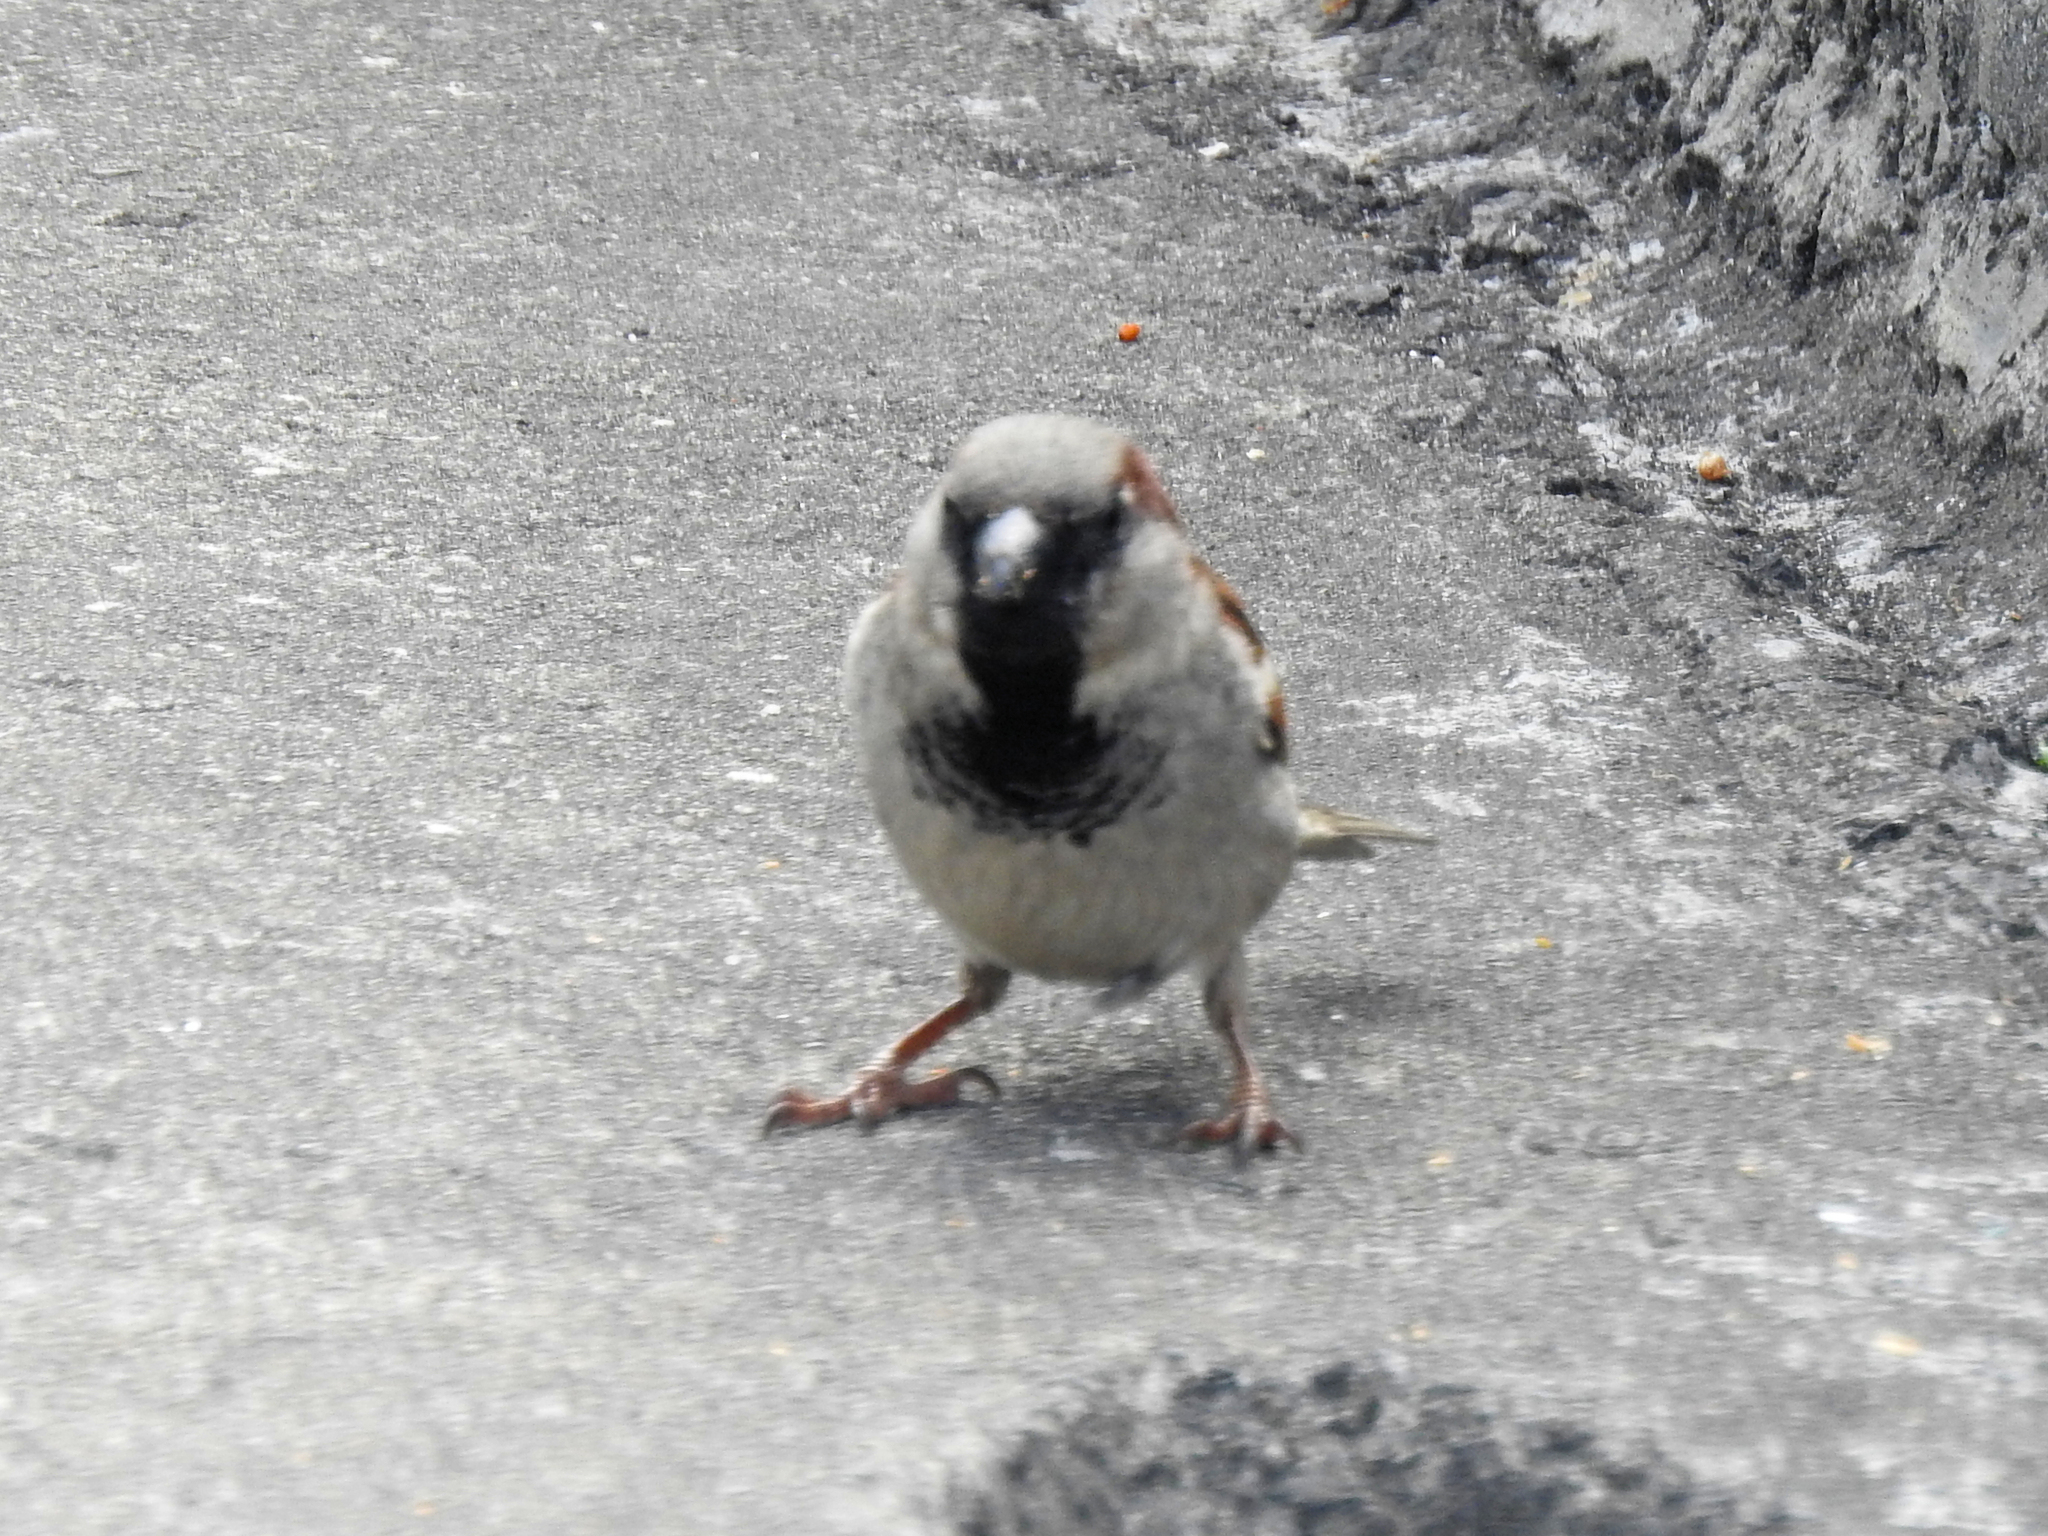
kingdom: Animalia
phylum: Chordata
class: Aves
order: Passeriformes
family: Passeridae
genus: Passer
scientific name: Passer domesticus
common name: House sparrow
